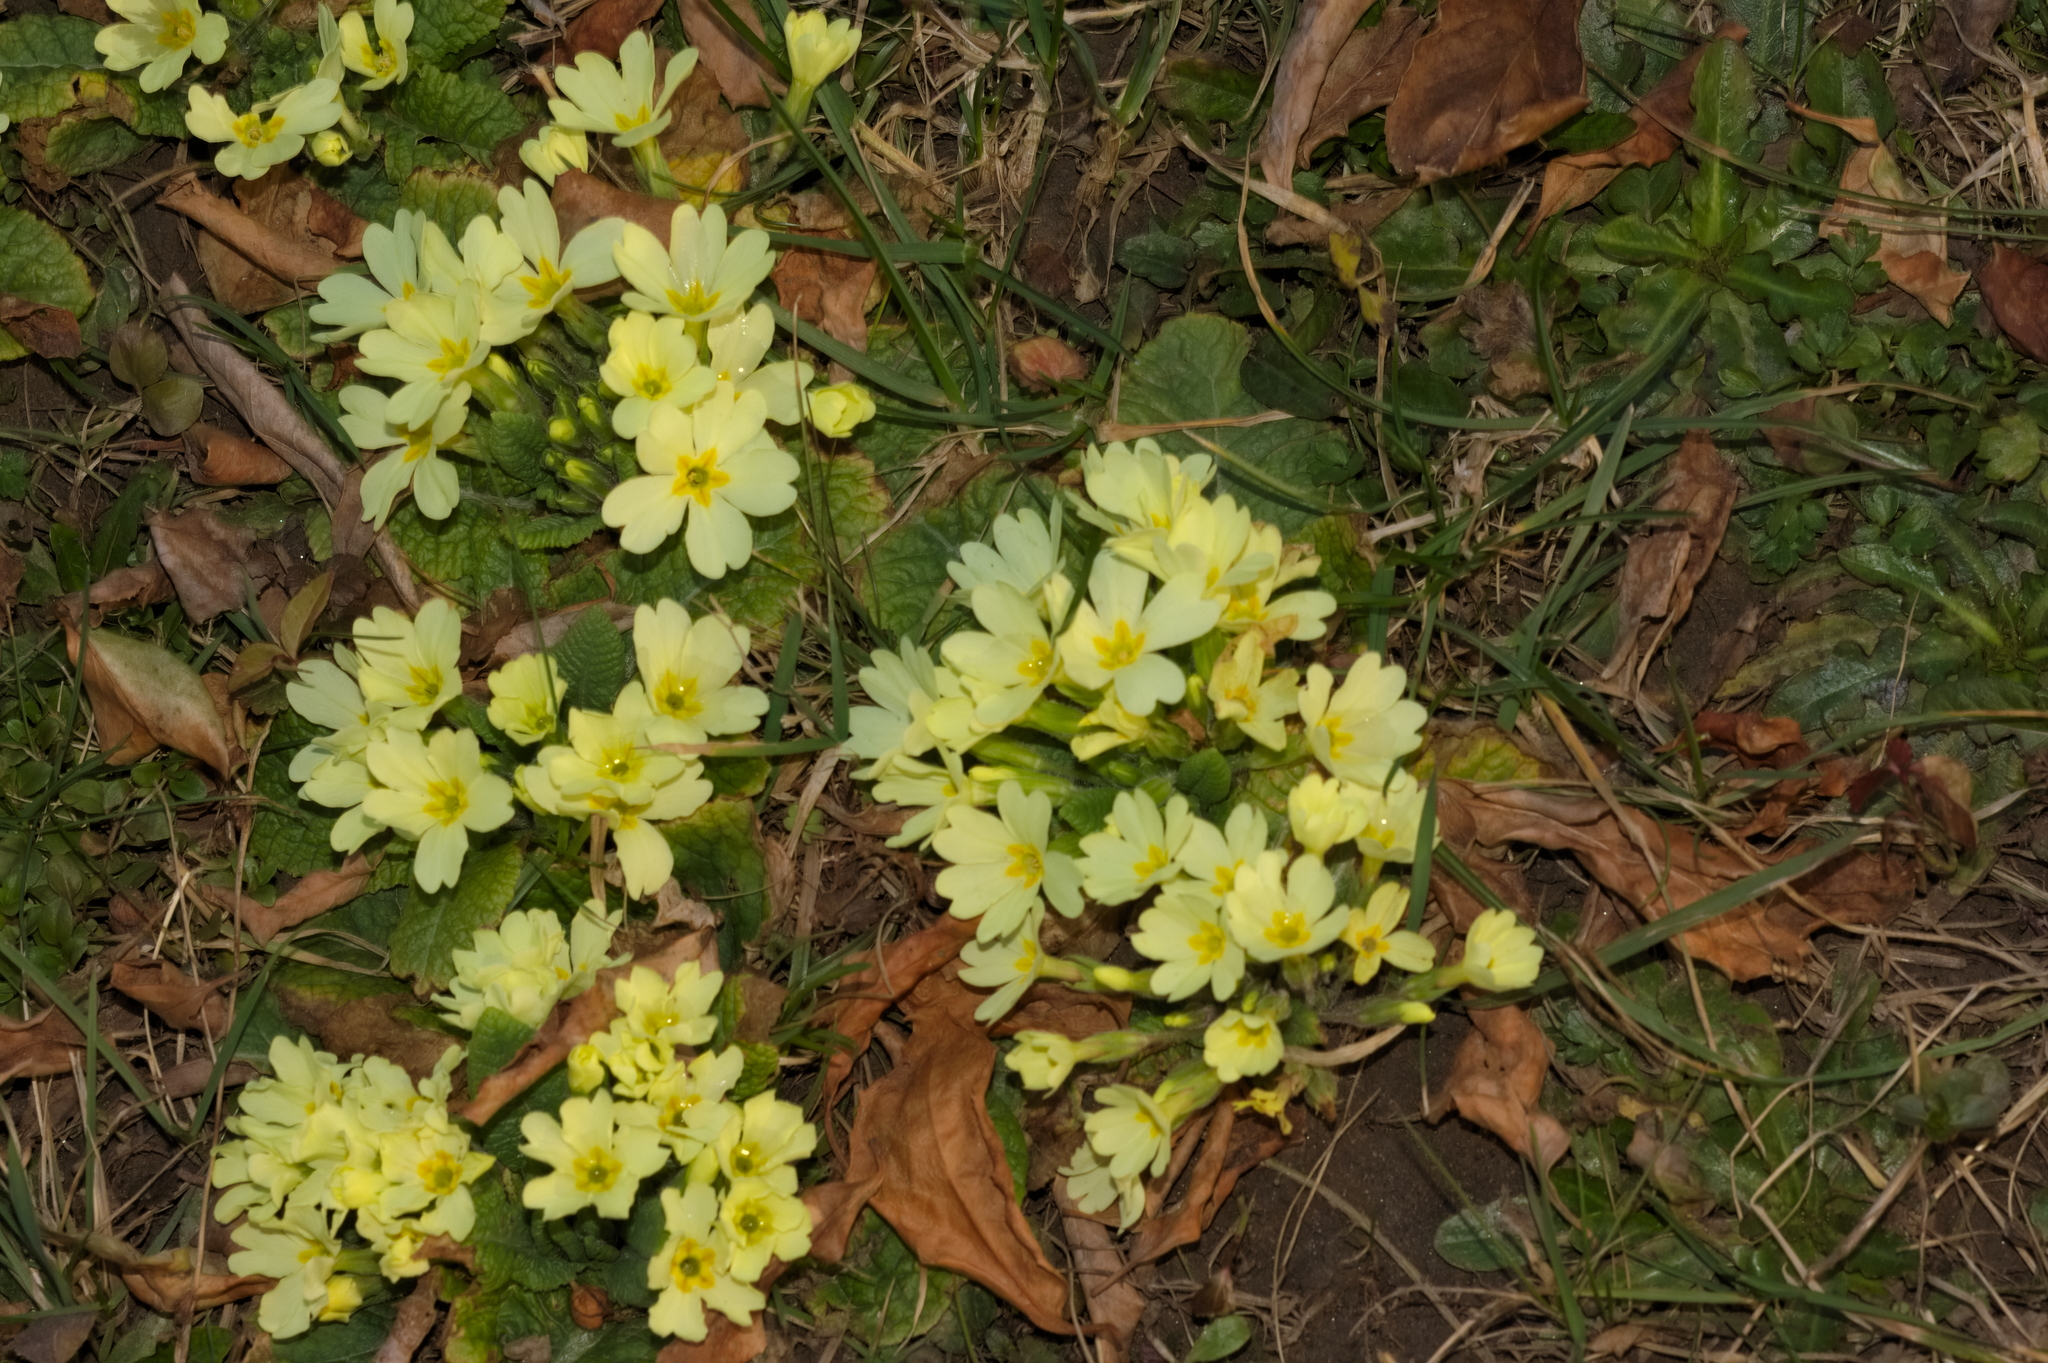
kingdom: Plantae
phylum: Tracheophyta
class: Magnoliopsida
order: Ericales
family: Primulaceae
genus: Primula
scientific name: Primula vulgaris
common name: Primrose
